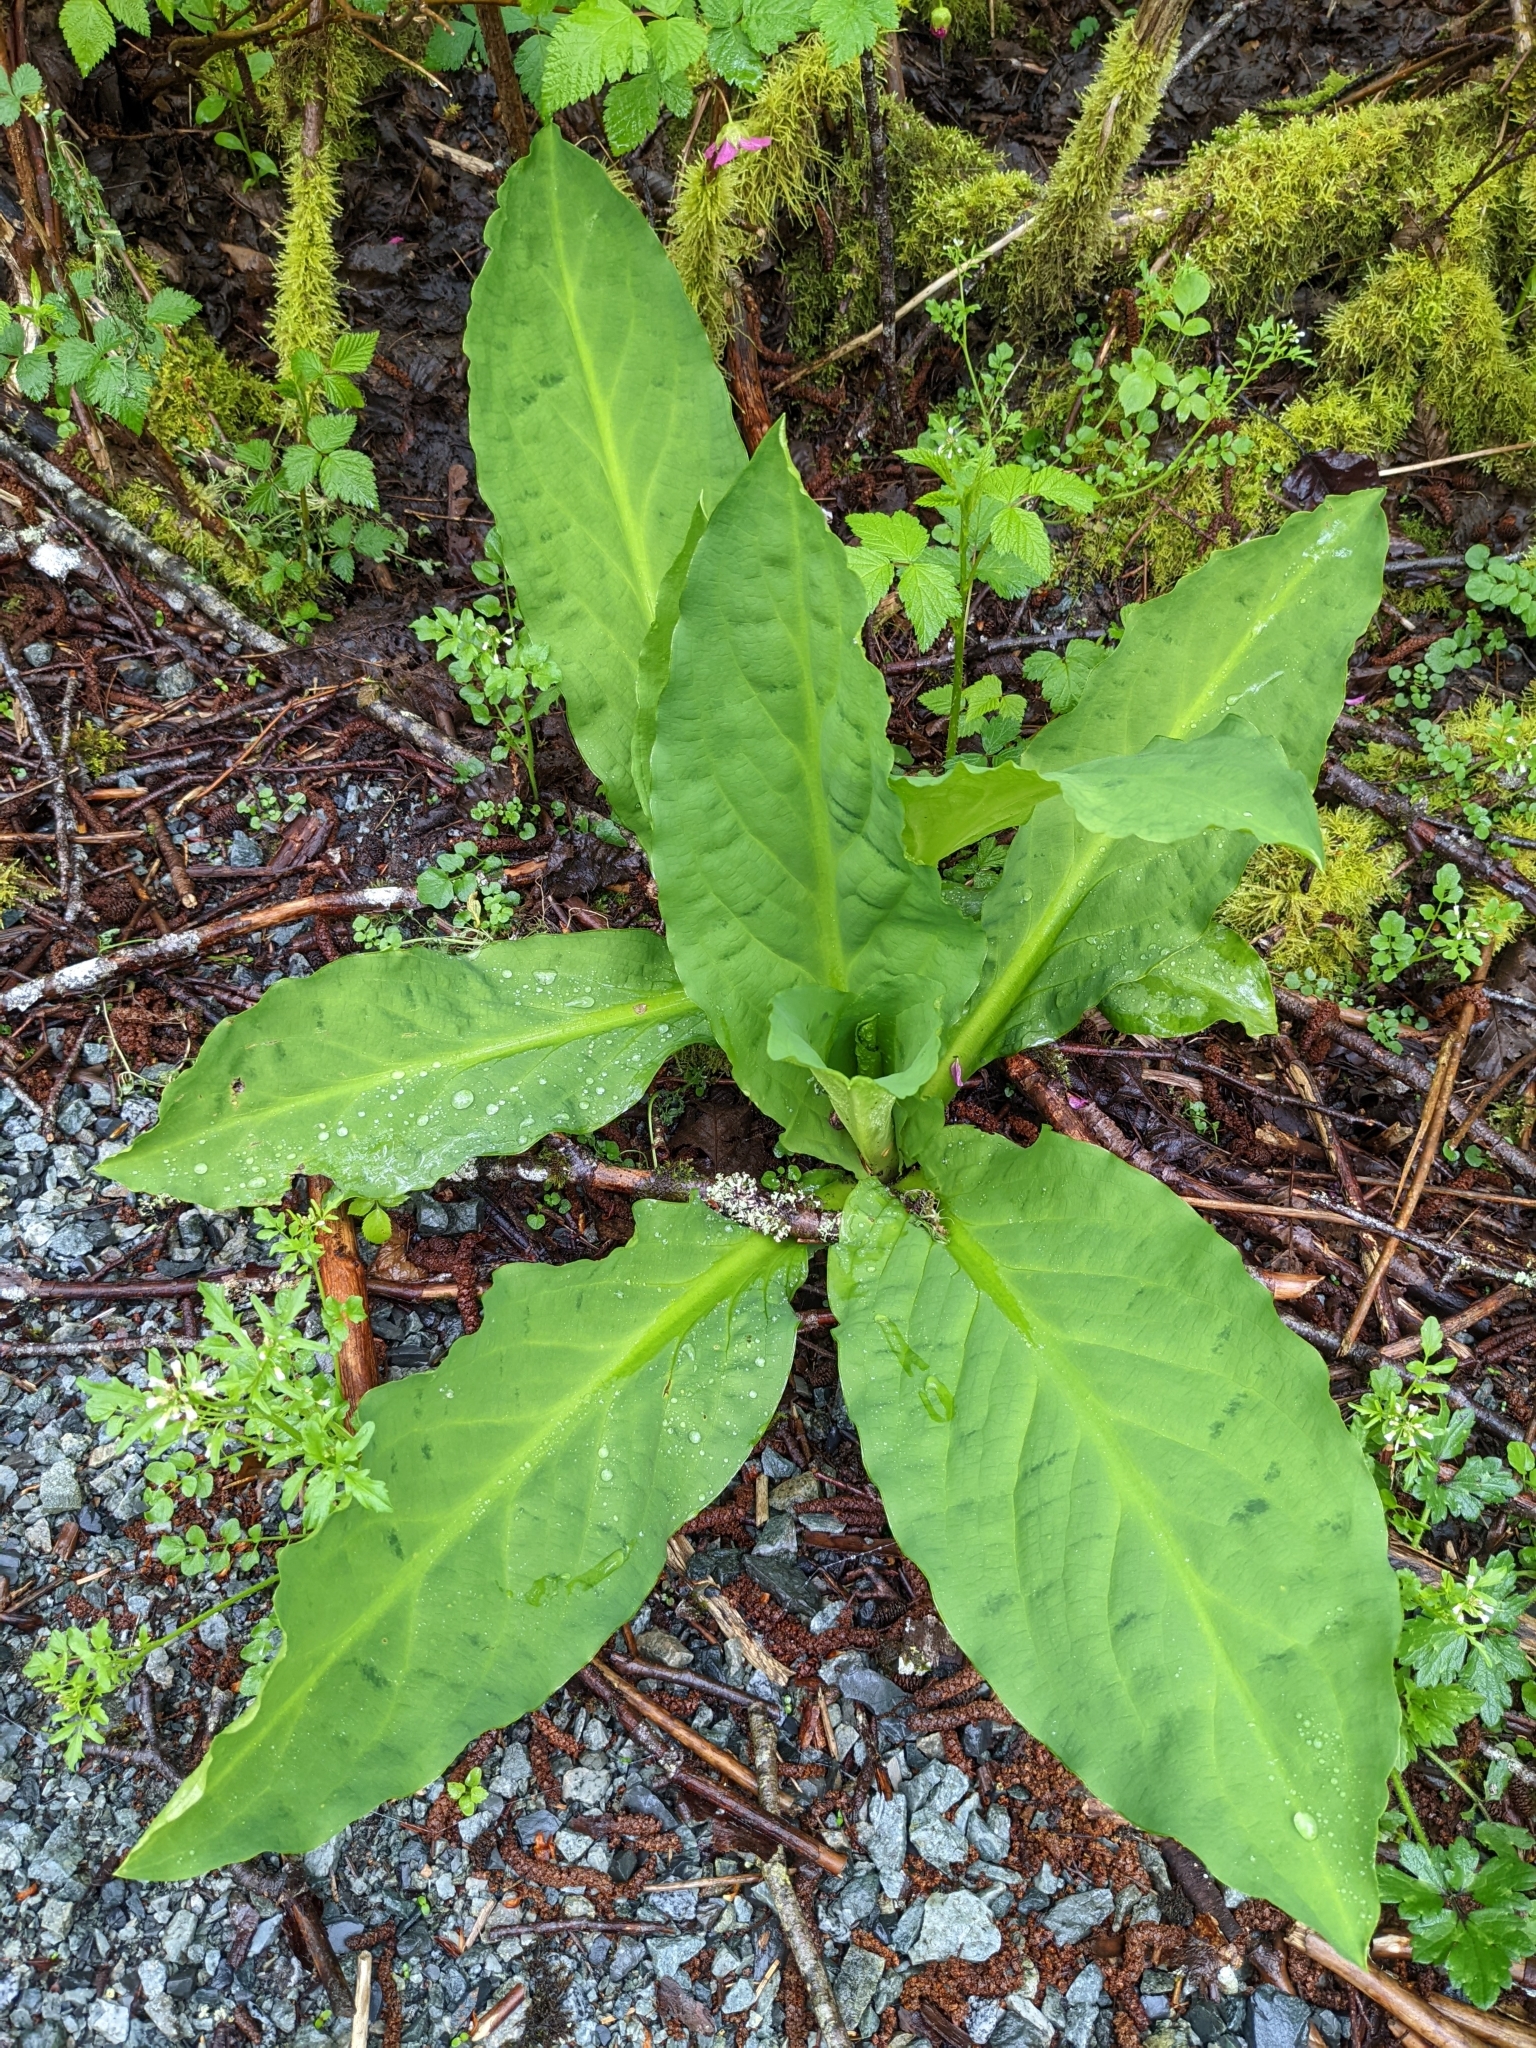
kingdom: Plantae
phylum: Tracheophyta
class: Liliopsida
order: Alismatales
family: Araceae
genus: Lysichiton
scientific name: Lysichiton americanus
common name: American skunk cabbage
